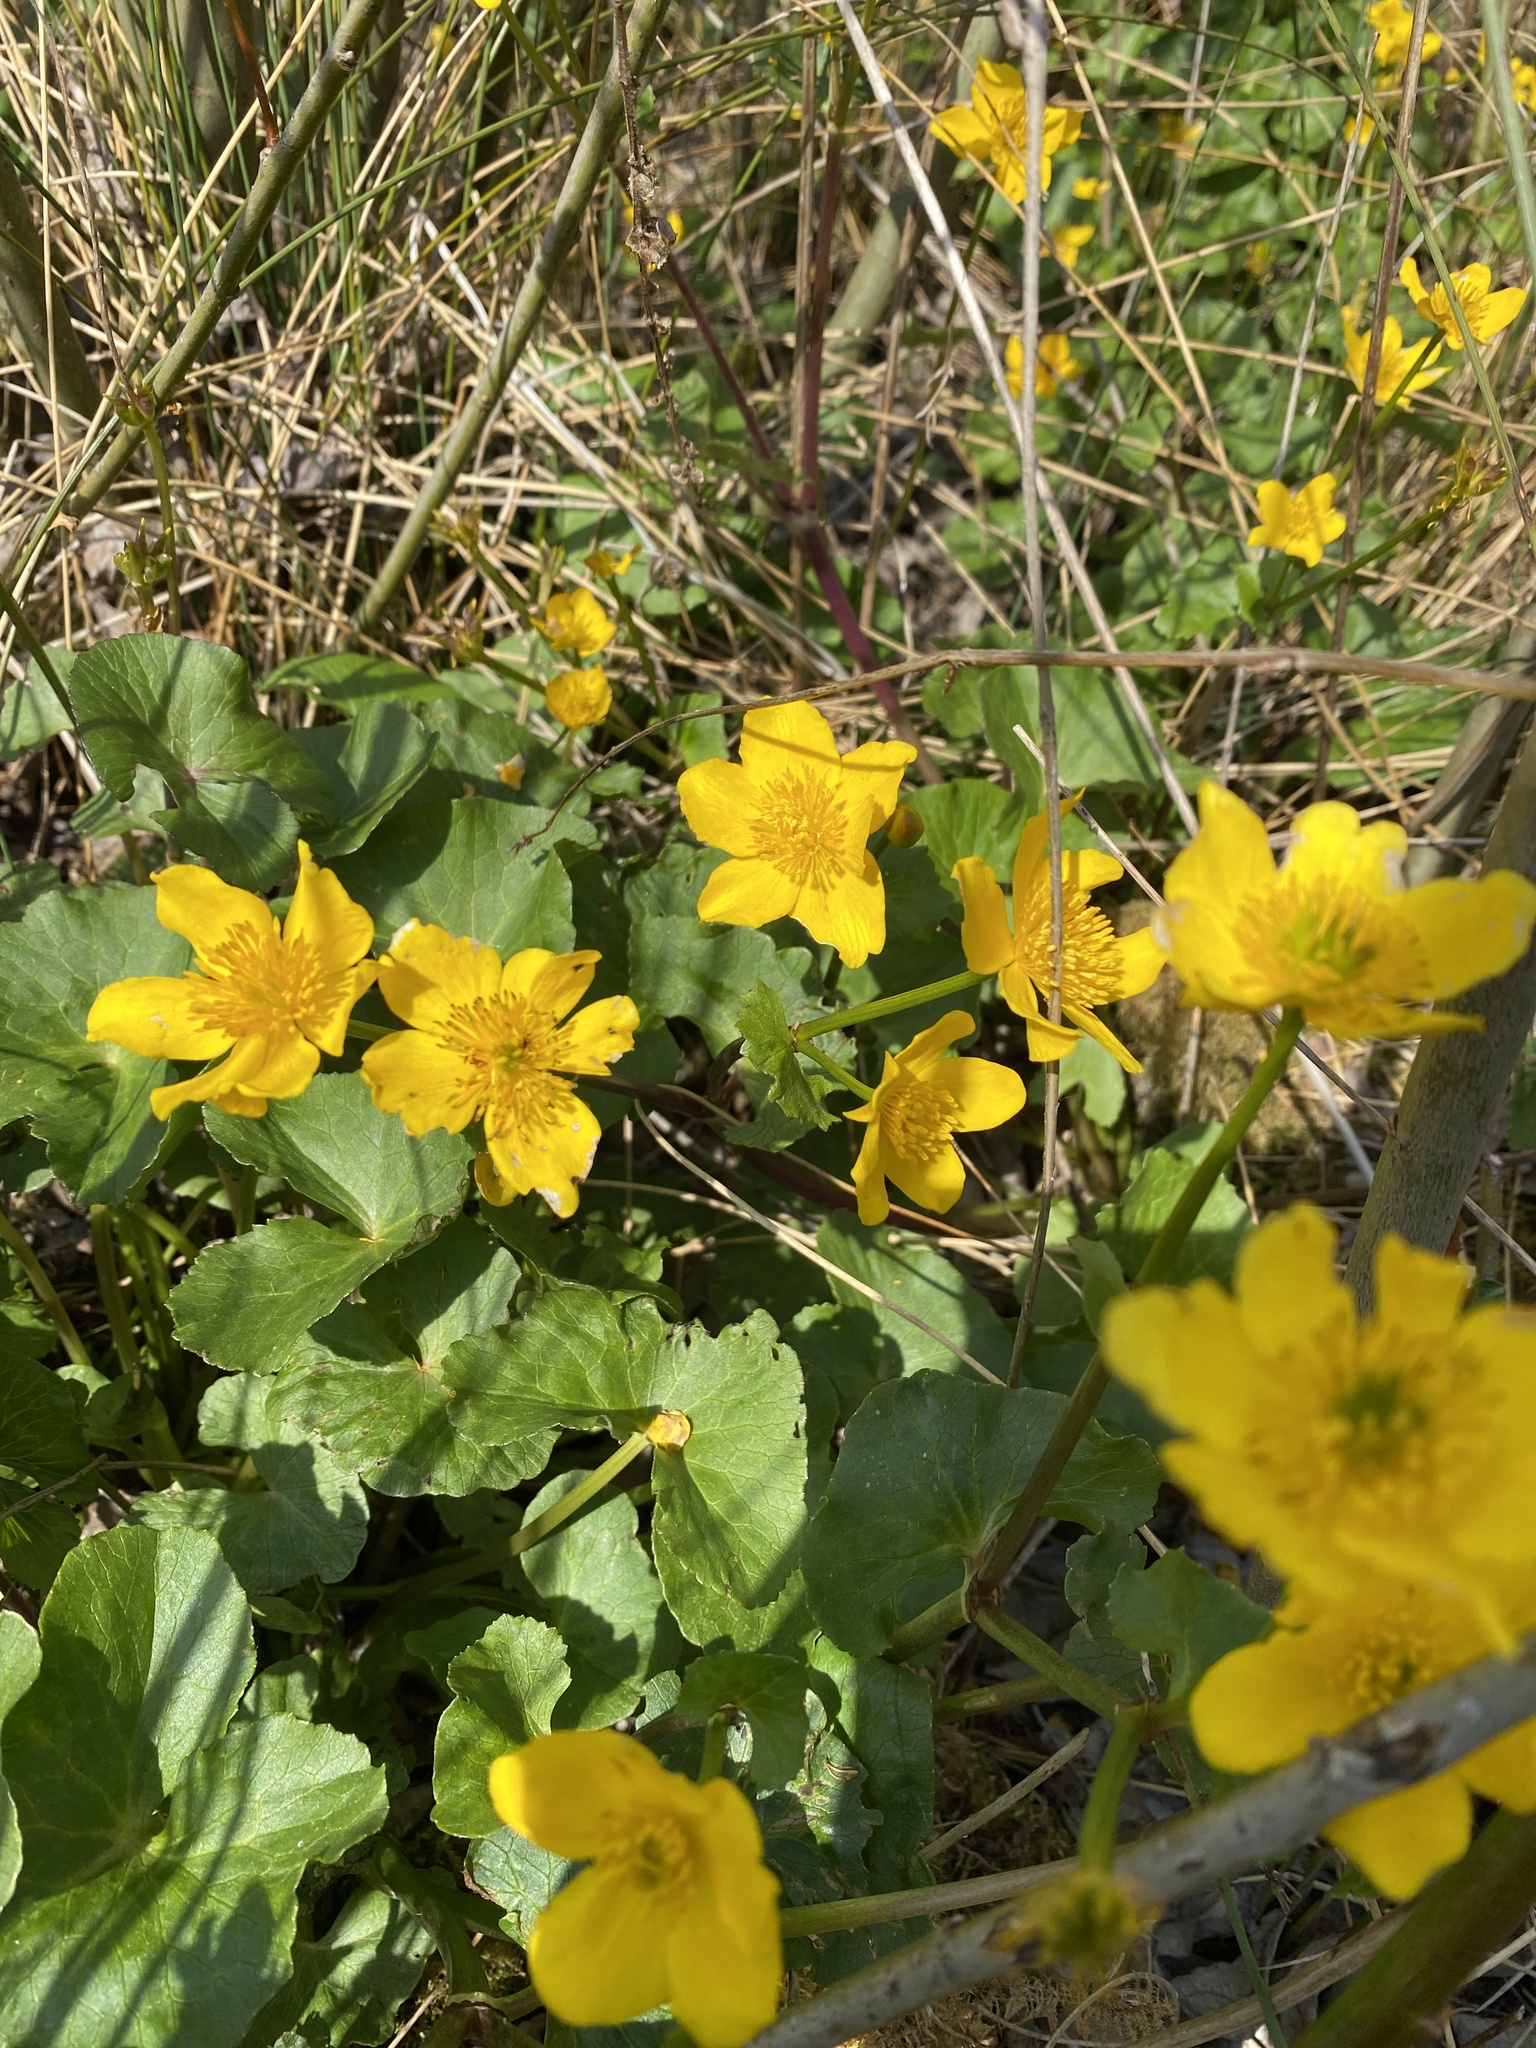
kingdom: Plantae
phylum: Tracheophyta
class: Magnoliopsida
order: Ranunculales
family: Ranunculaceae
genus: Caltha
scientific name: Caltha palustris
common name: Marsh marigold
